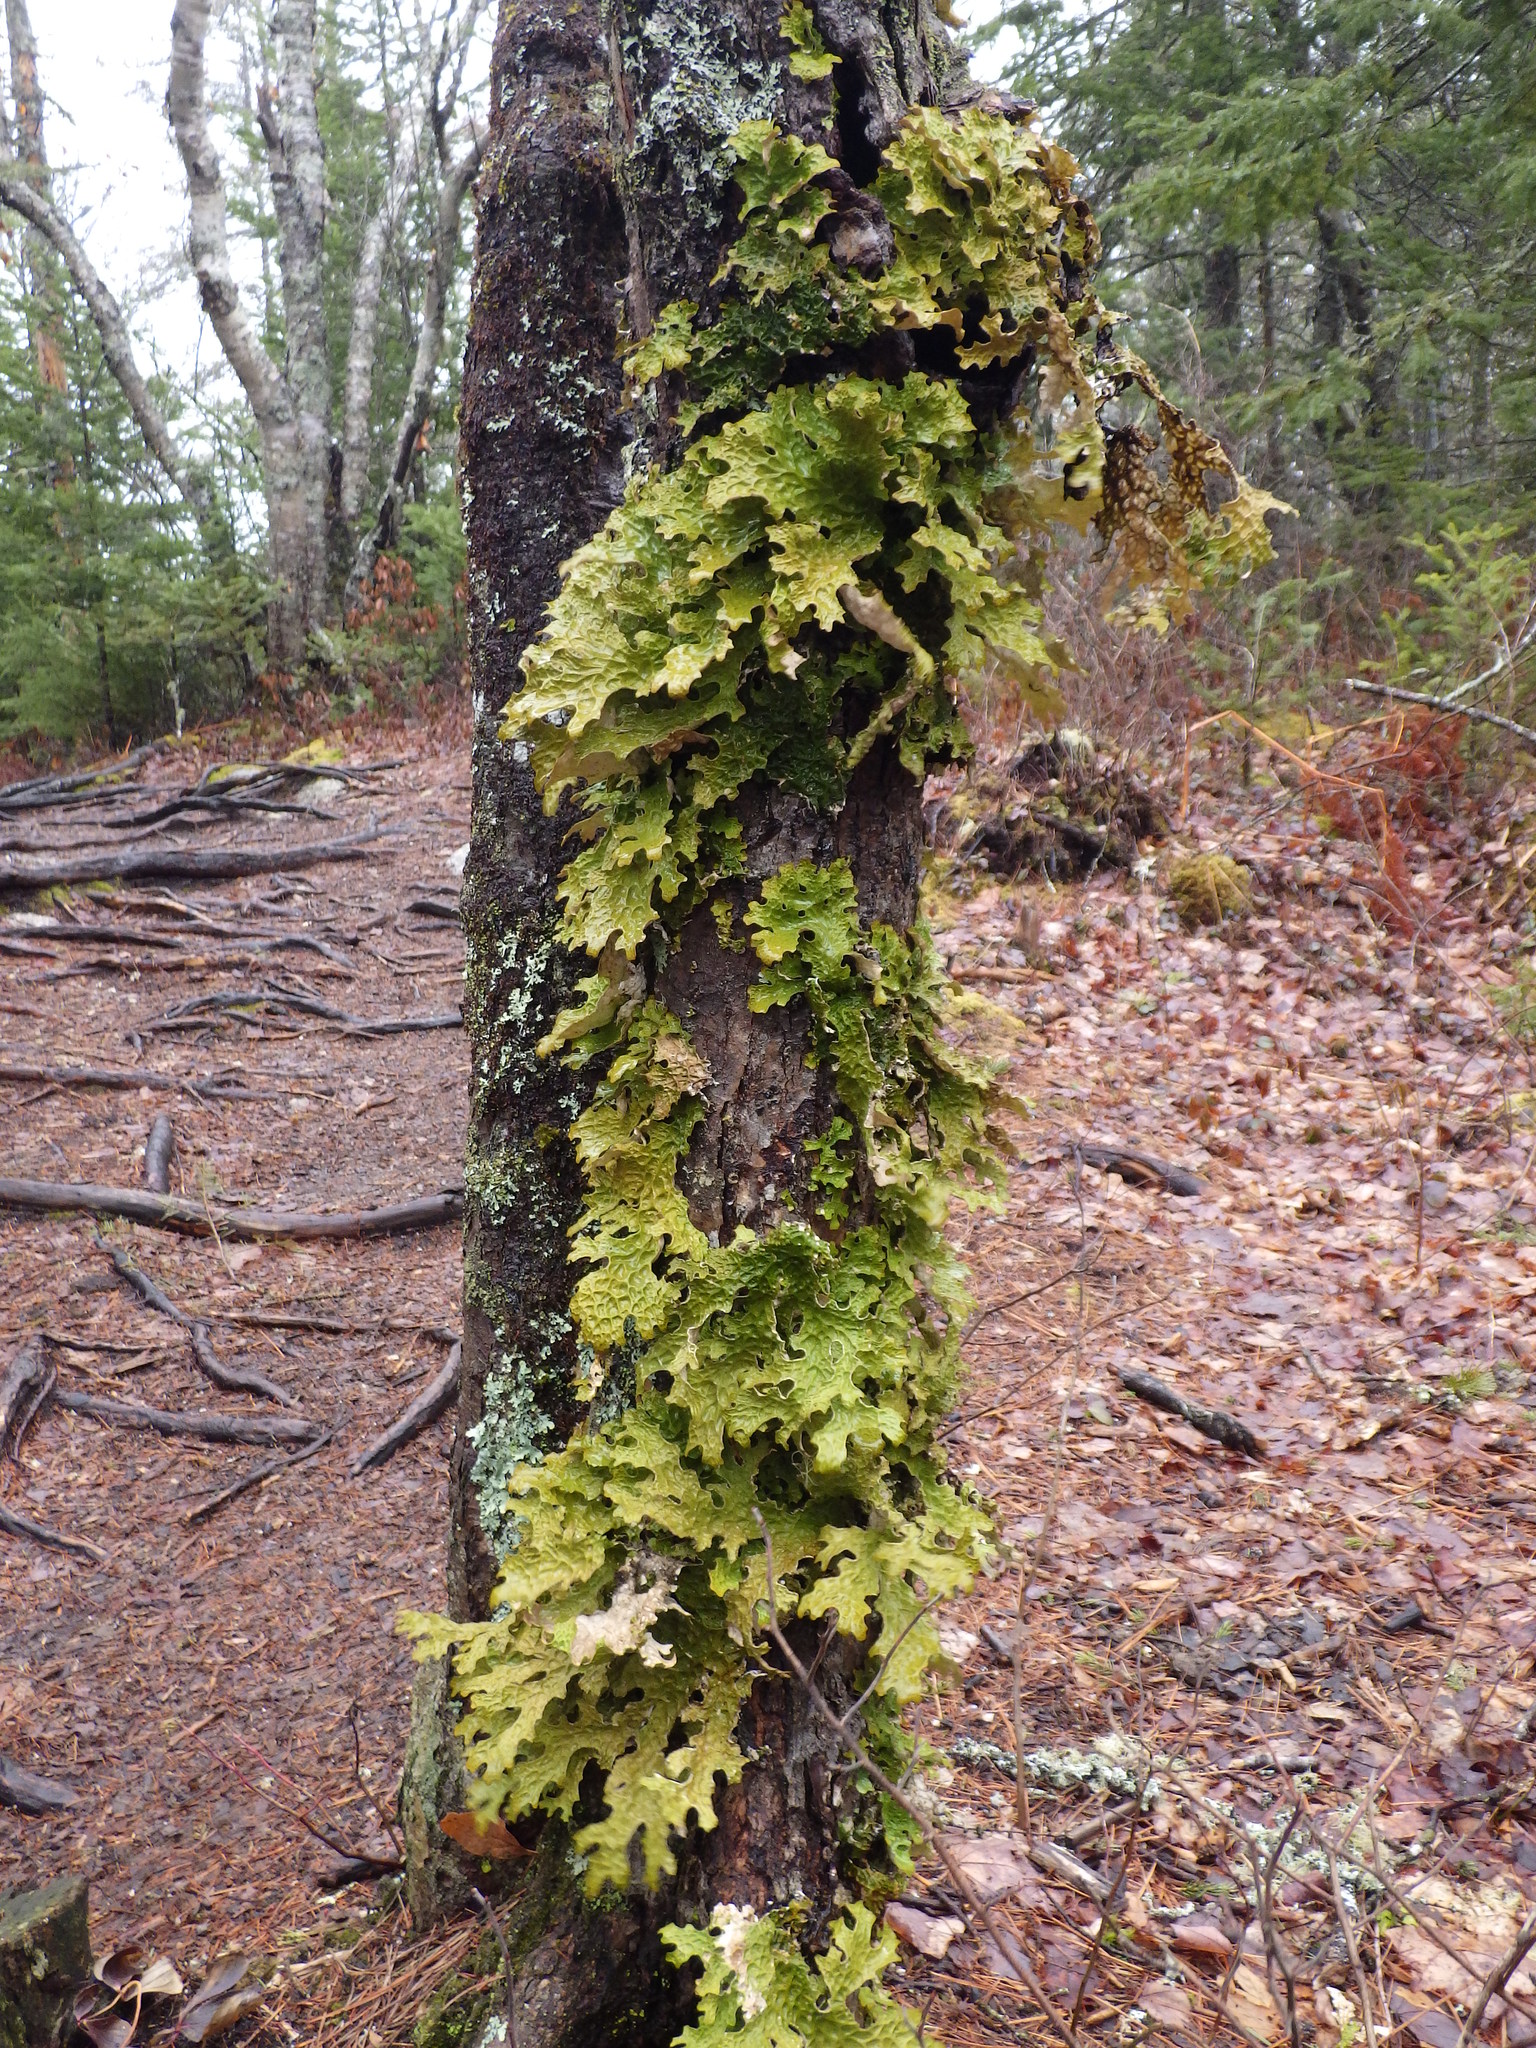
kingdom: Fungi
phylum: Ascomycota
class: Lecanoromycetes
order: Peltigerales
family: Lobariaceae
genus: Lobaria
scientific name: Lobaria pulmonaria
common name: Lungwort
